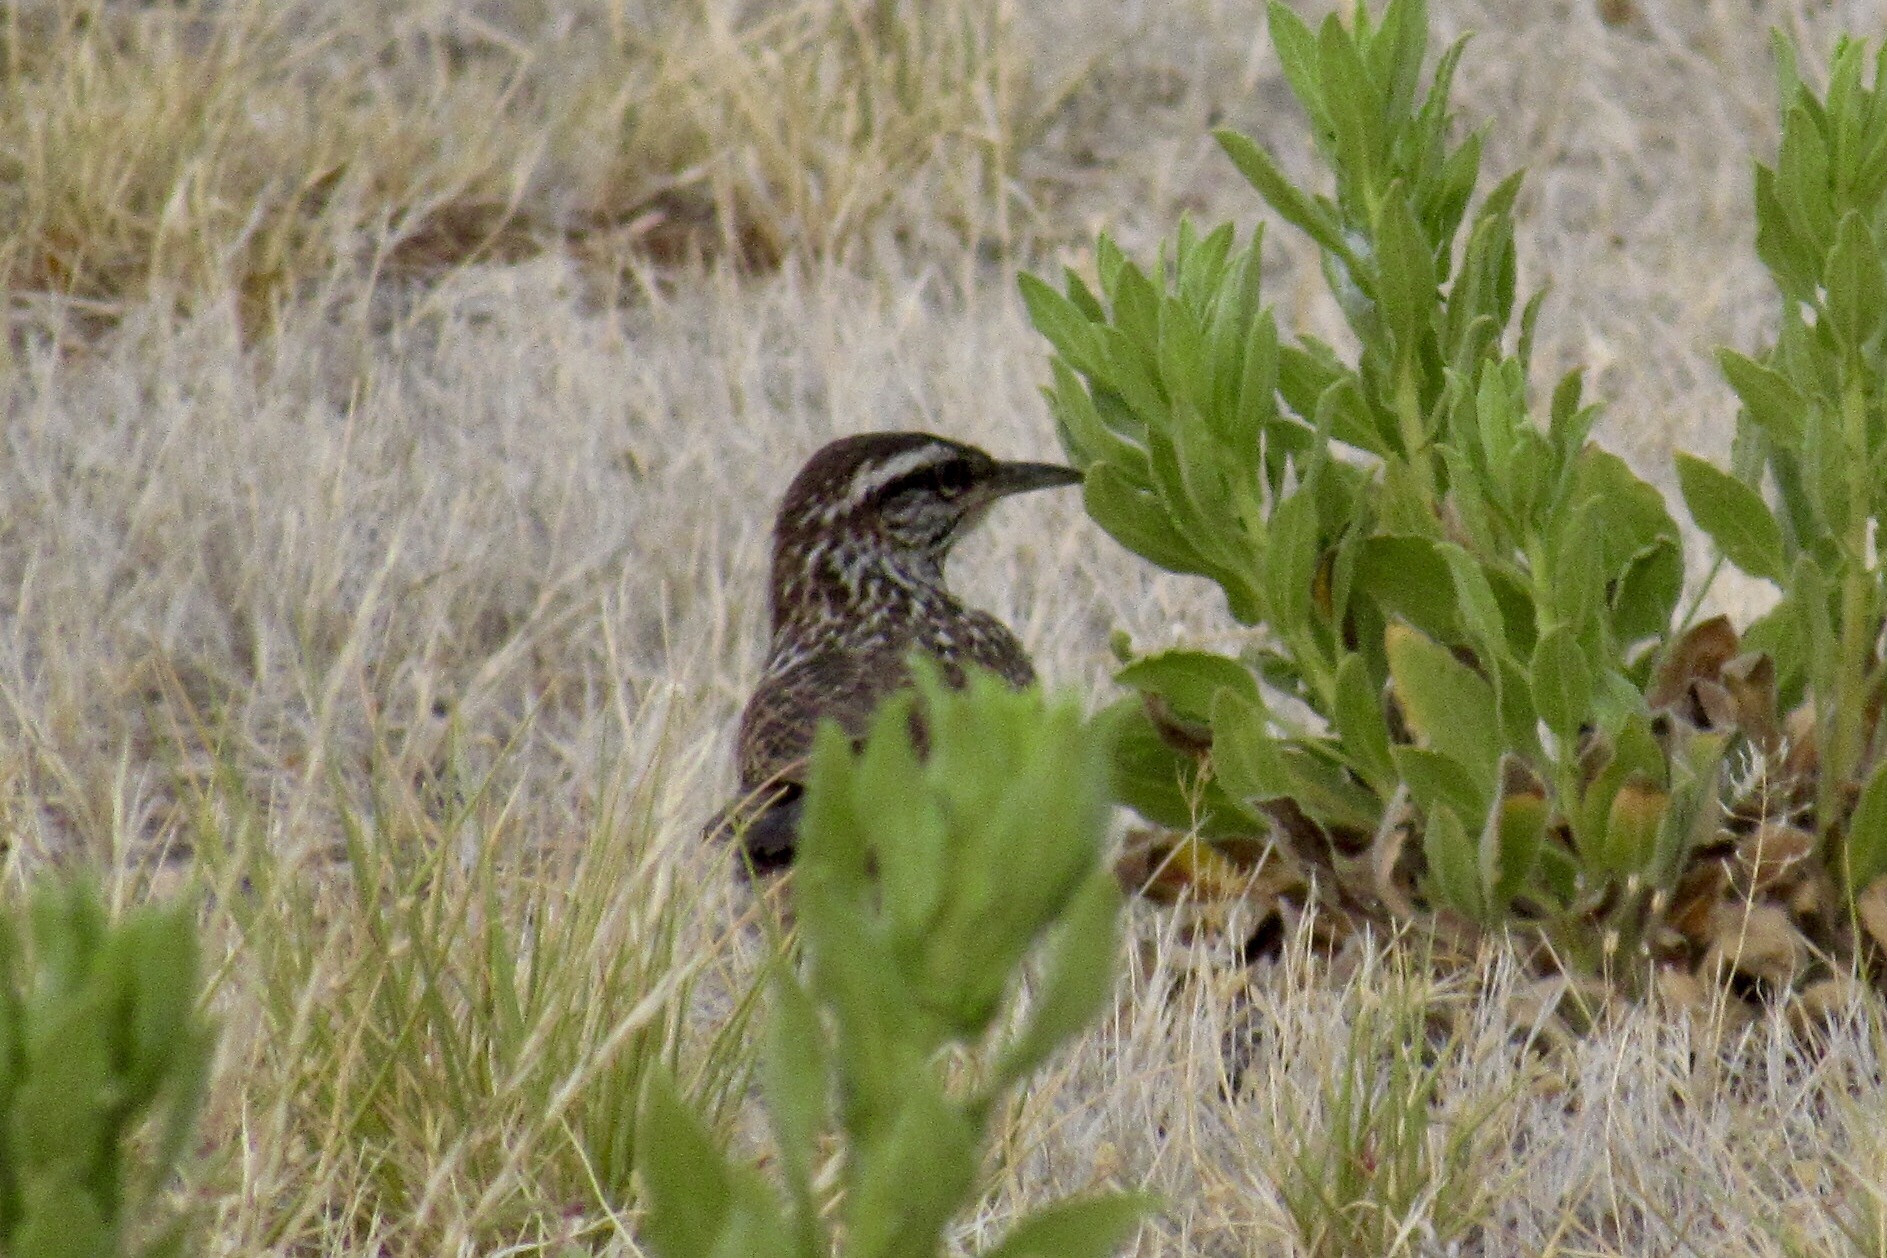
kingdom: Animalia
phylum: Chordata
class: Aves
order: Passeriformes
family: Troglodytidae
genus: Campylorhynchus
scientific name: Campylorhynchus brunneicapillus
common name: Cactus wren
